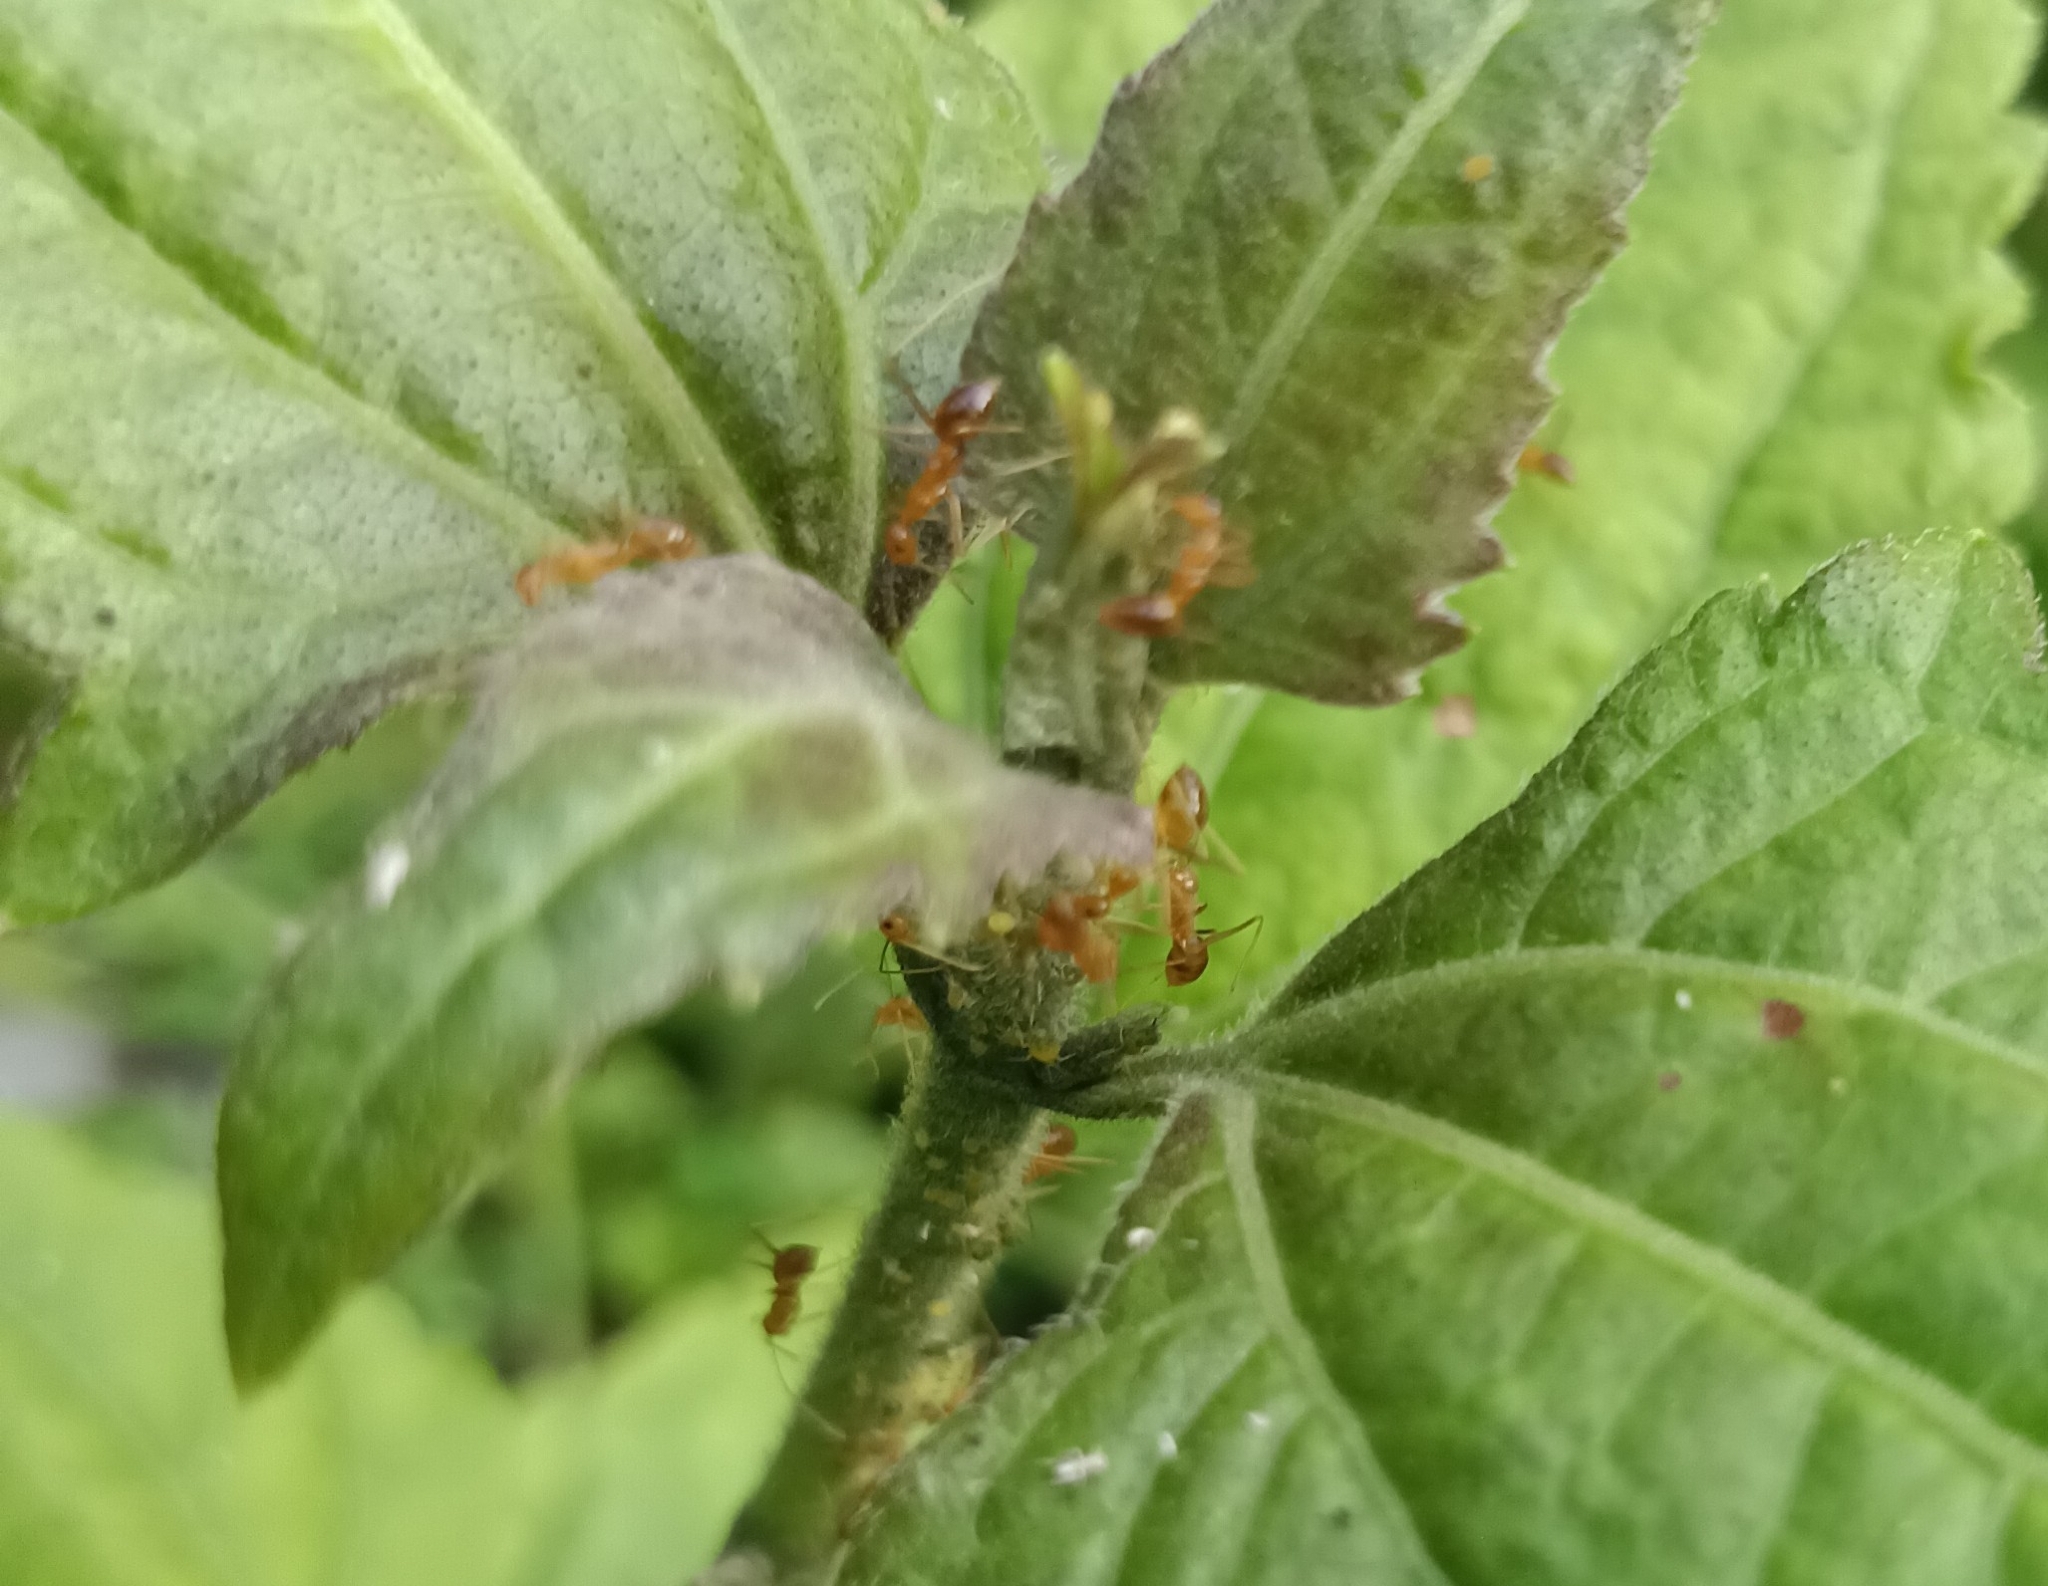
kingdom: Animalia
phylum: Arthropoda
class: Insecta
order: Hymenoptera
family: Formicidae
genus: Anoplolepis
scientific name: Anoplolepis gracilipes
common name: Ant
